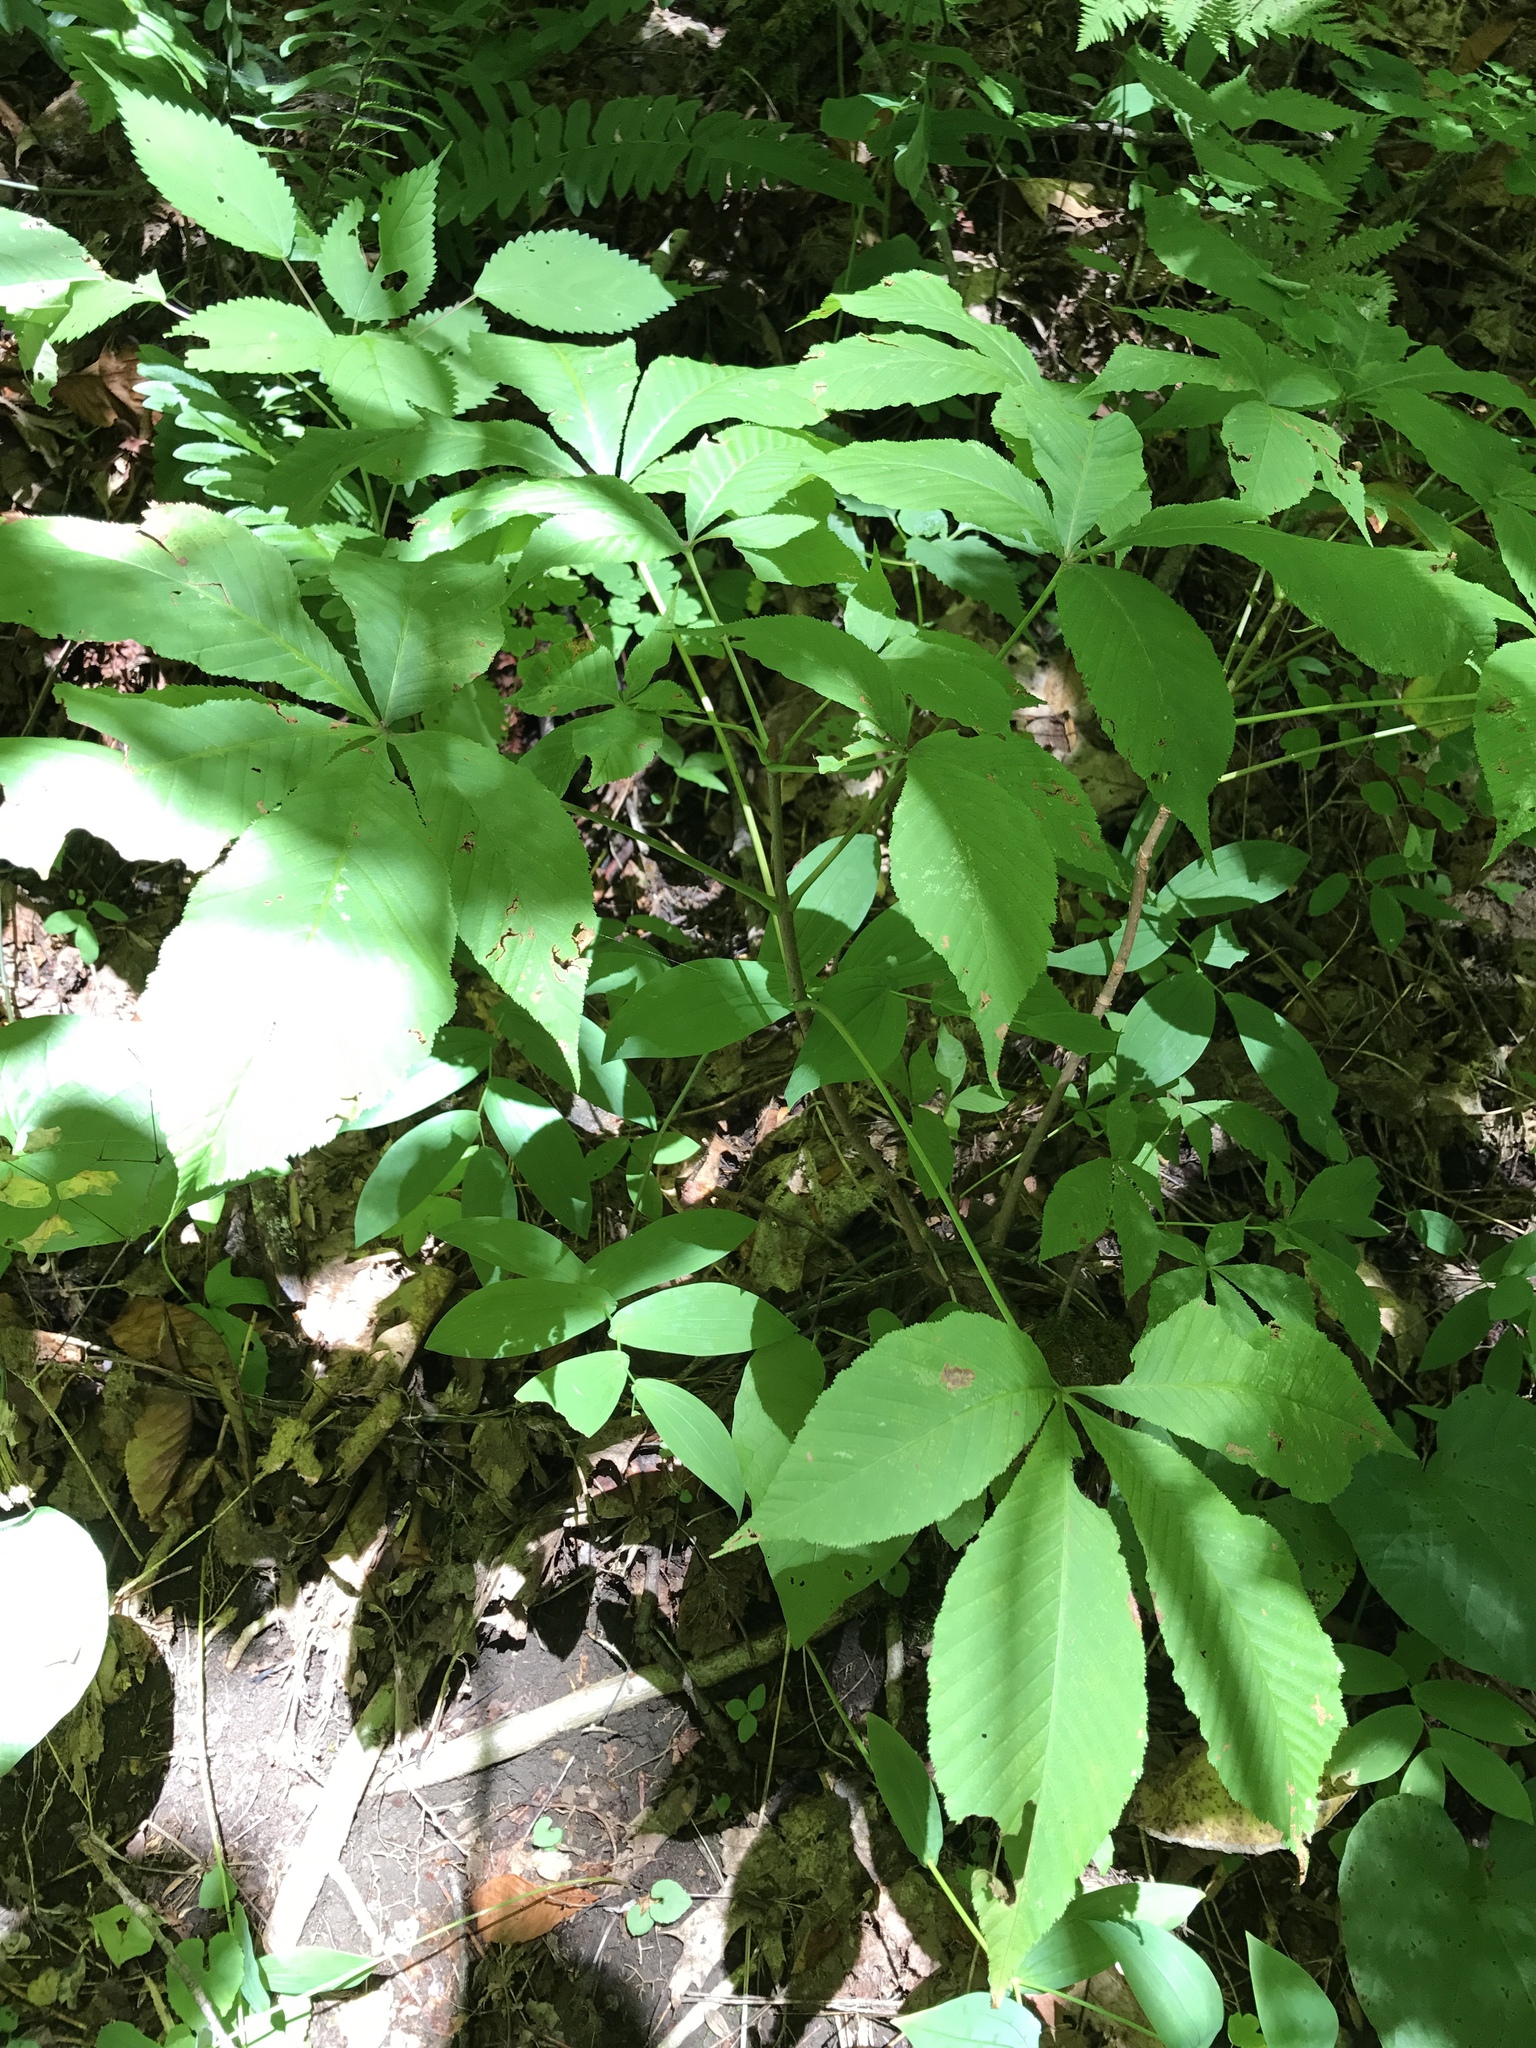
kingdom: Plantae
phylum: Tracheophyta
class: Magnoliopsida
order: Sapindales
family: Sapindaceae
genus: Aesculus
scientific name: Aesculus flava
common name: Yellow buckeye
